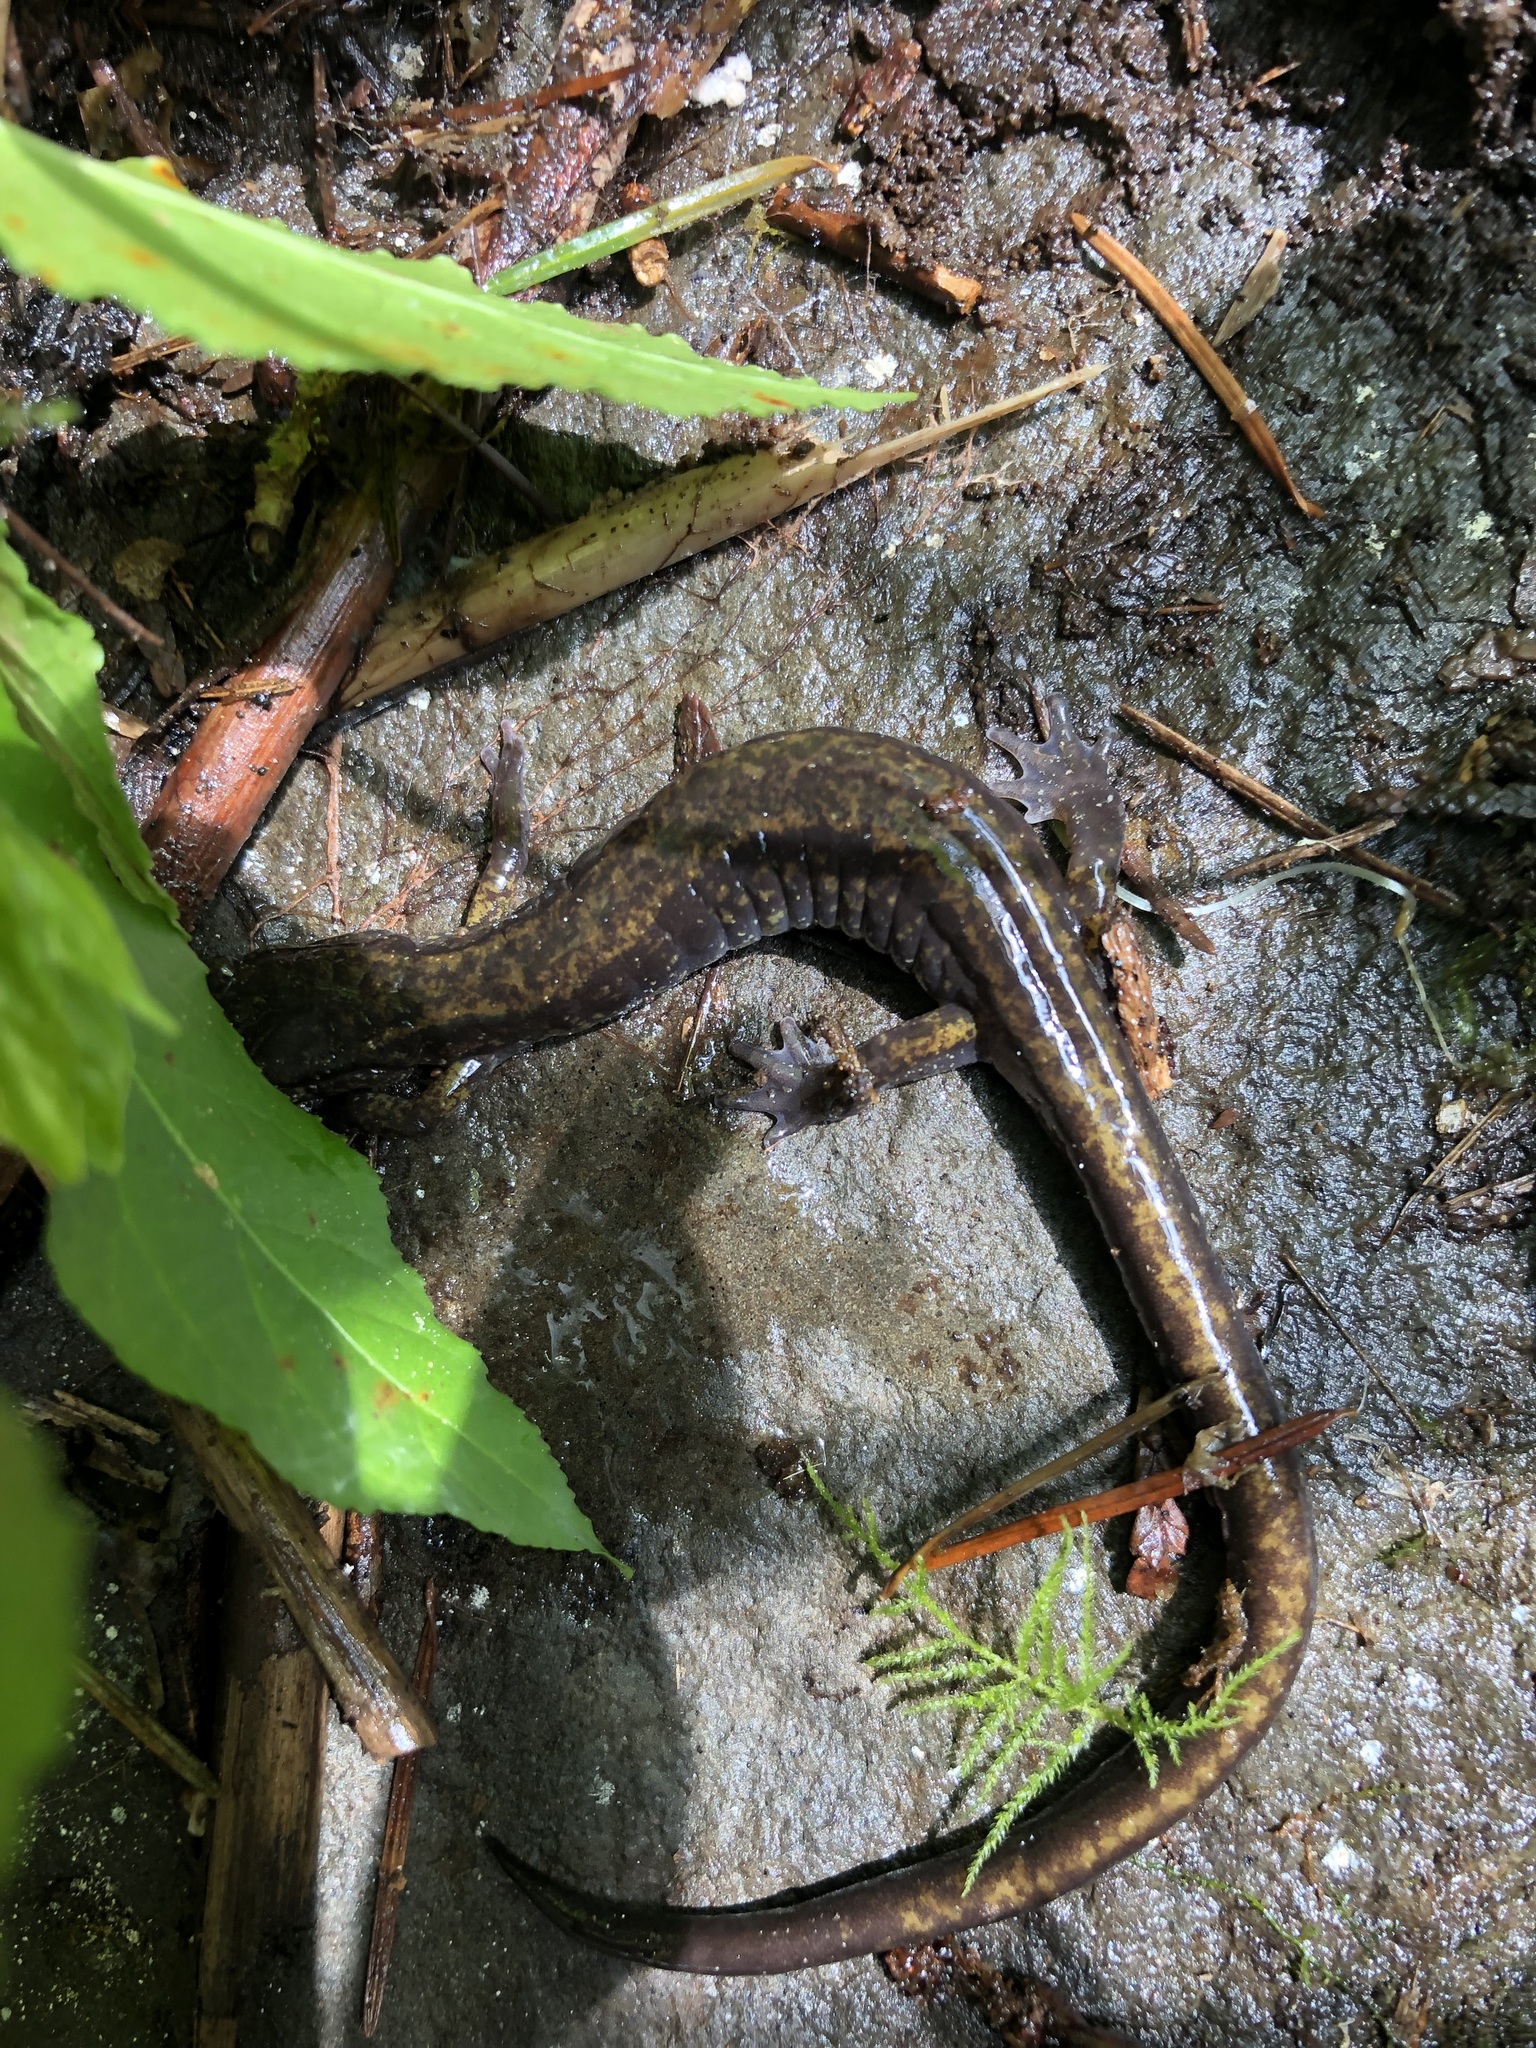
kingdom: Animalia
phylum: Chordata
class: Amphibia
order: Caudata
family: Plethodontidae
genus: Plethodon
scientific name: Plethodon dunni
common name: Dunn's salamander
